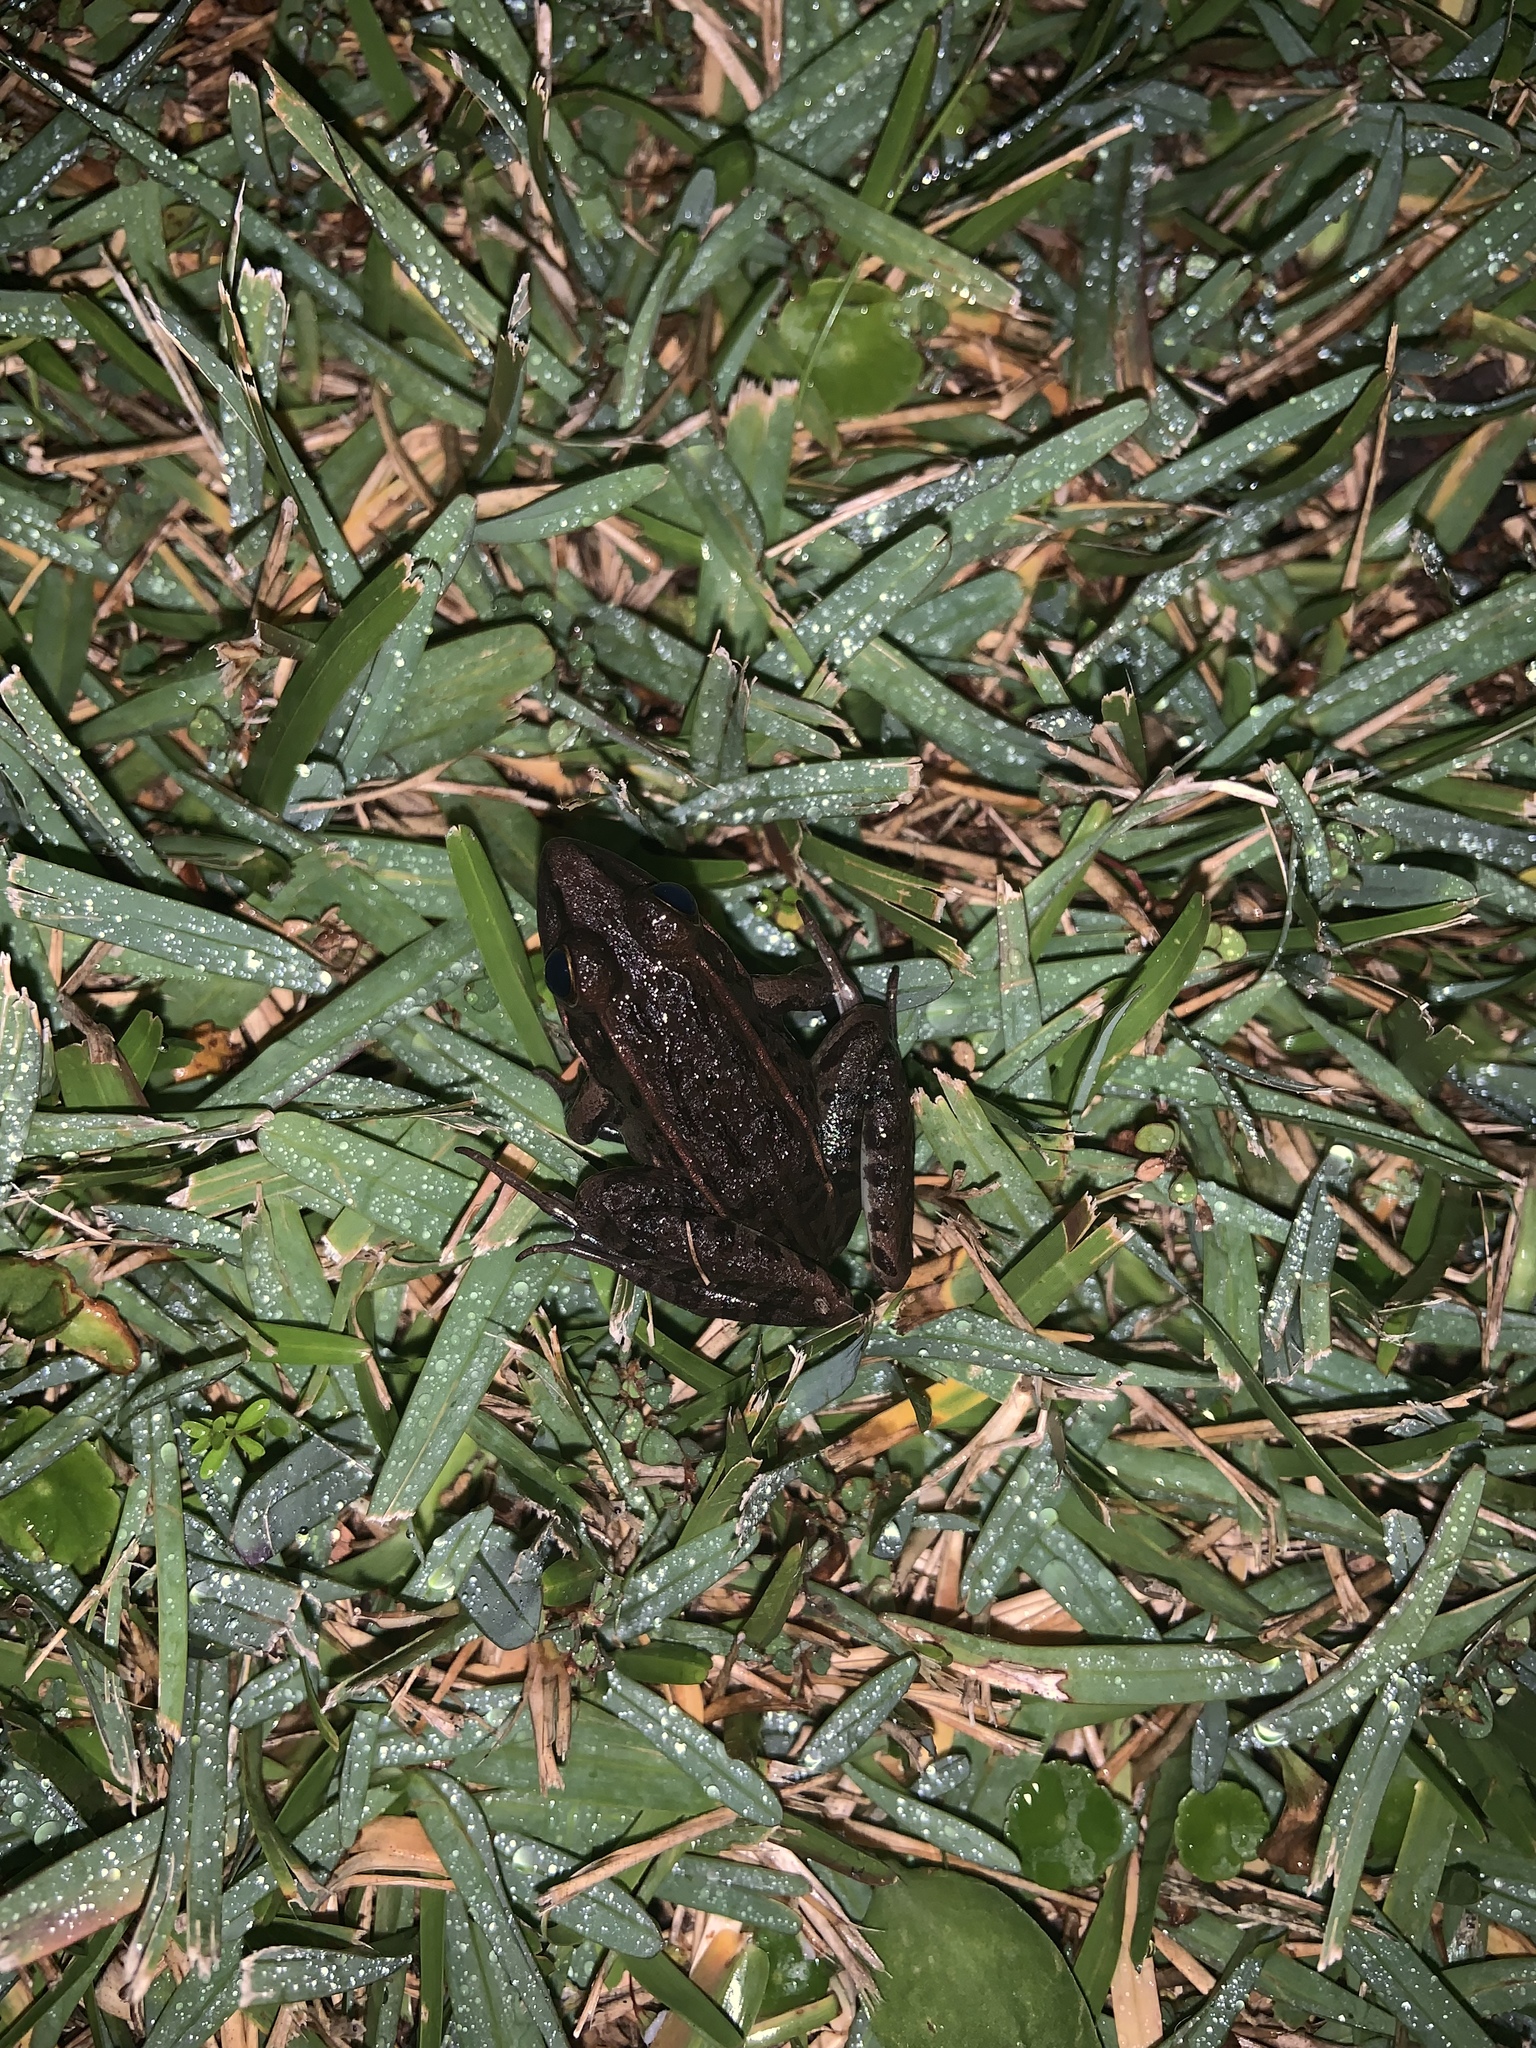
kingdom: Animalia
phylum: Chordata
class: Amphibia
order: Anura
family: Ranidae
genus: Lithobates
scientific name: Lithobates sphenocephalus
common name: Southern leopard frog
